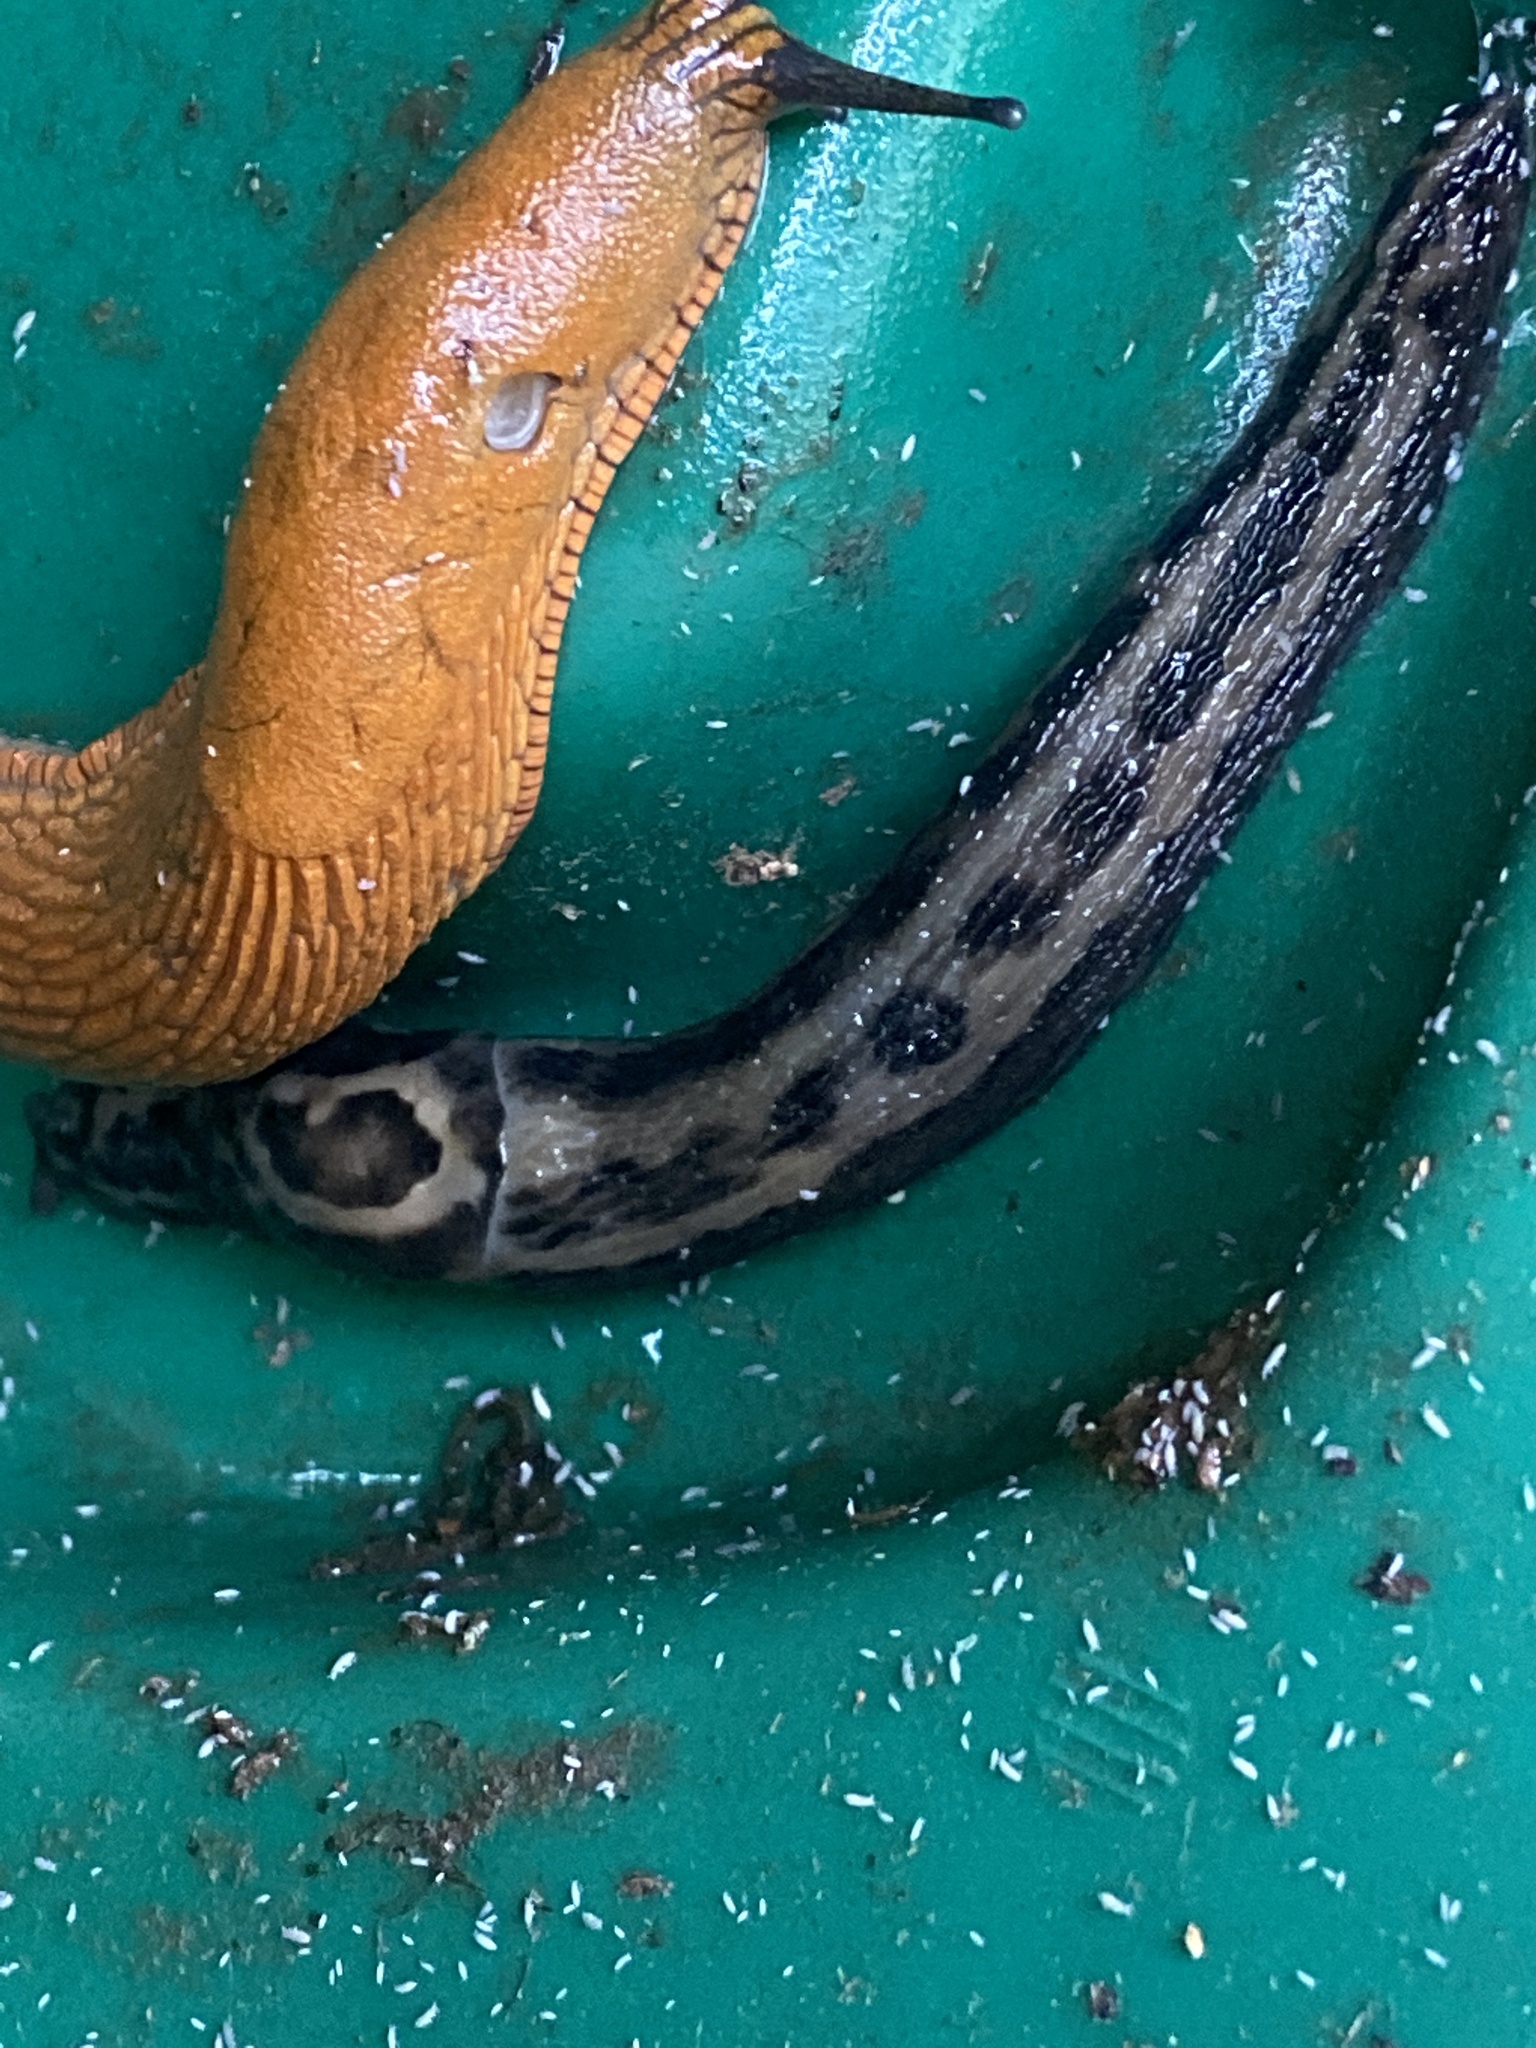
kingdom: Animalia
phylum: Mollusca
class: Gastropoda
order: Stylommatophora
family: Limacidae
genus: Limax
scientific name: Limax maximus
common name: Great grey slug
